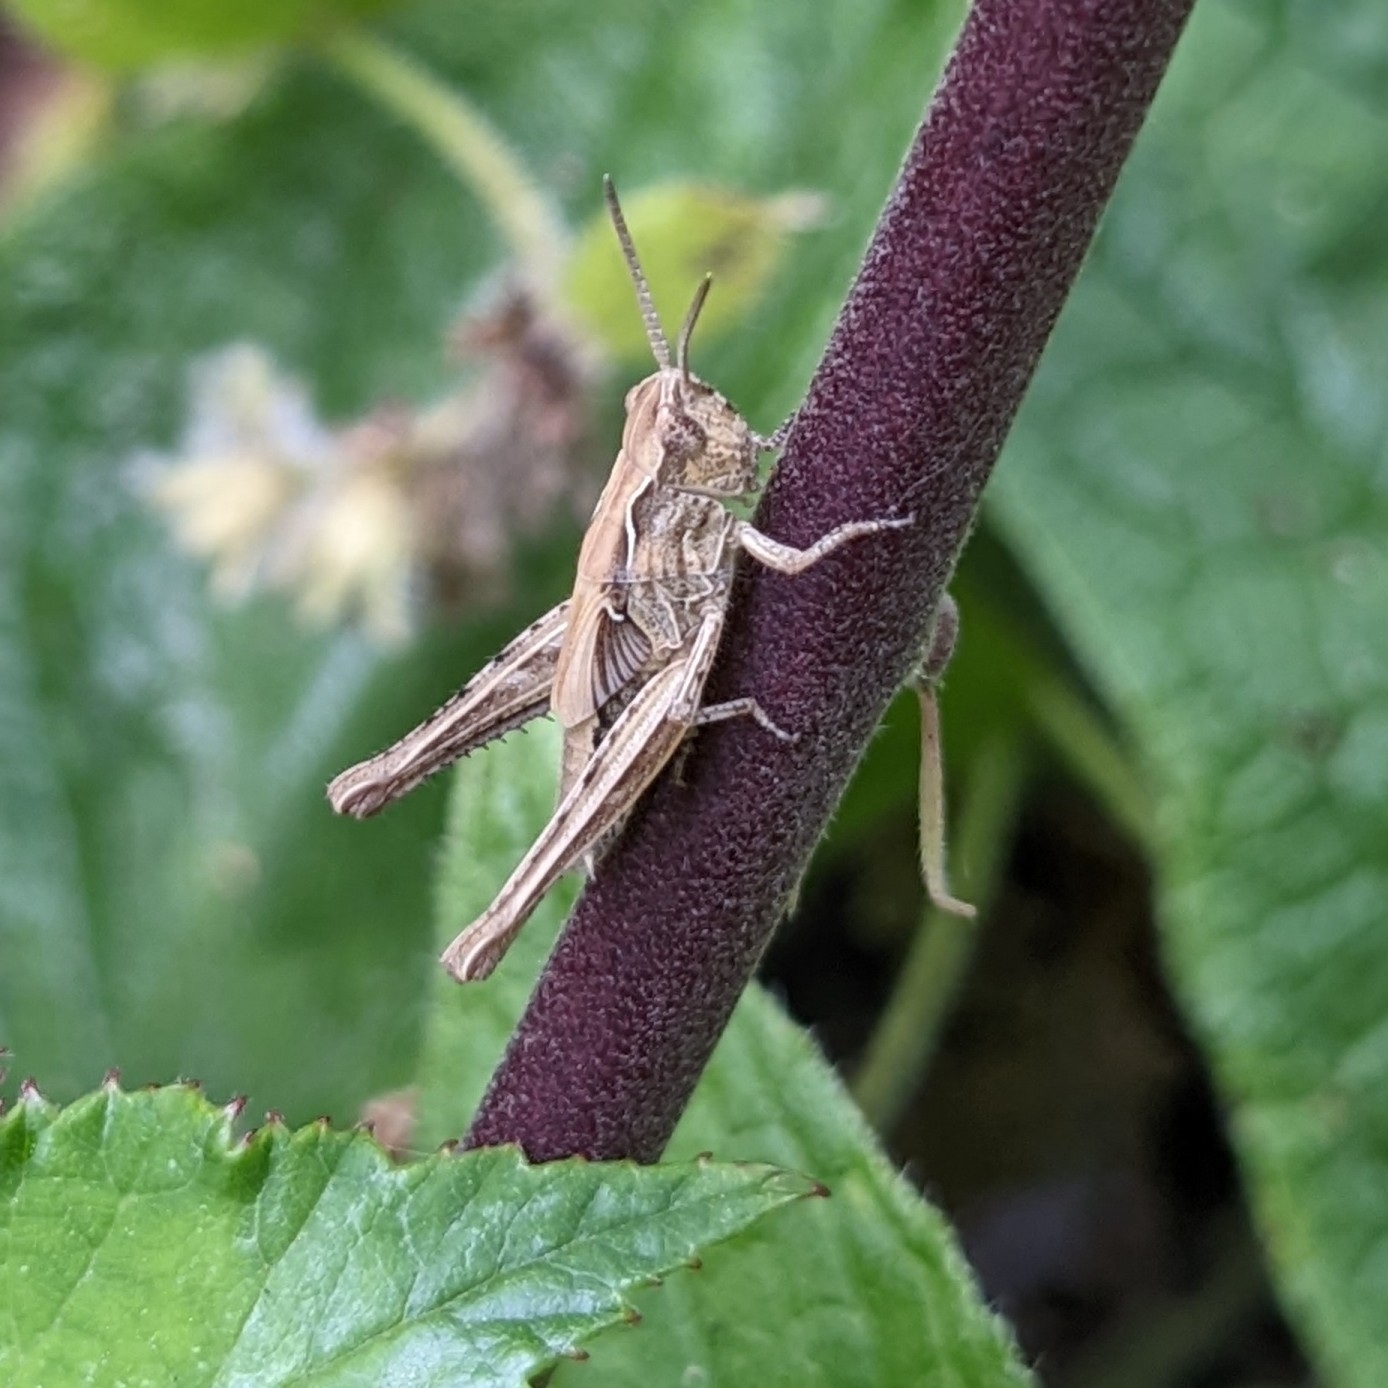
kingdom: Animalia
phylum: Arthropoda
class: Insecta
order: Orthoptera
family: Acrididae
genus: Chorthippus
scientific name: Chorthippus brunneus
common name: Field grasshopper
